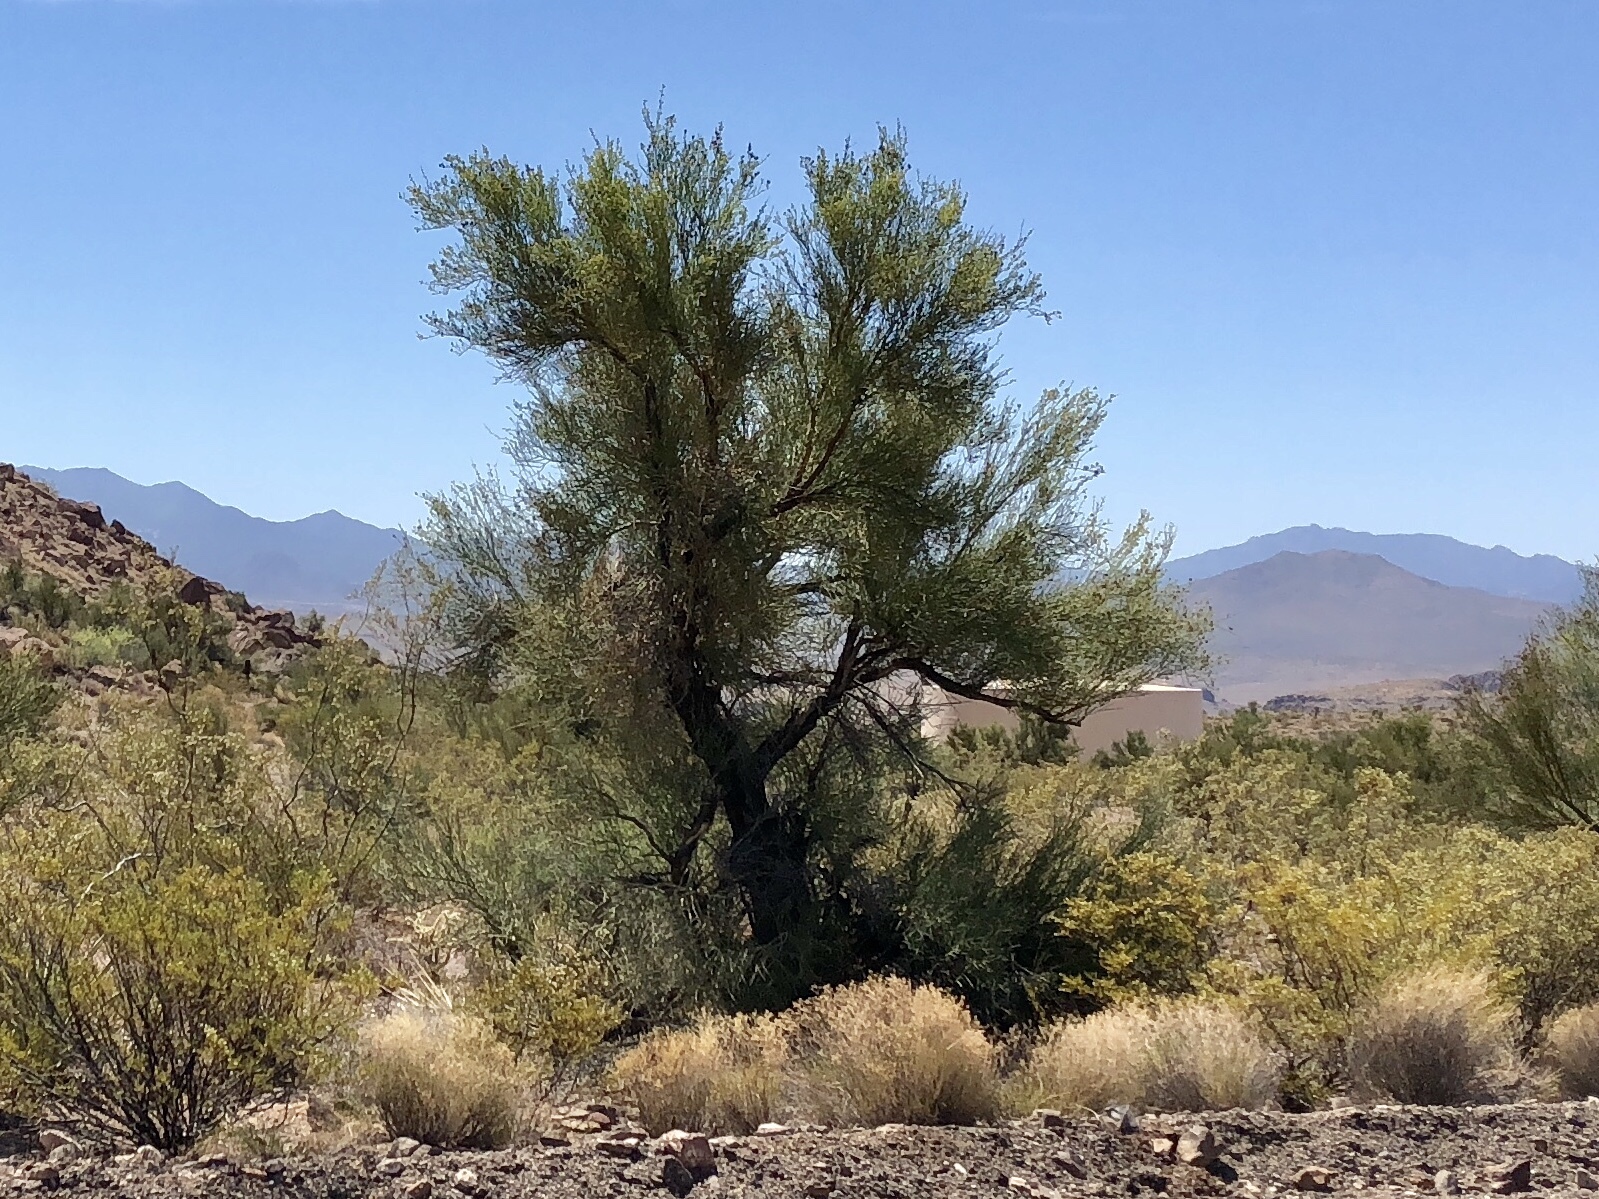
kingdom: Plantae
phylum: Tracheophyta
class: Magnoliopsida
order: Celastrales
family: Celastraceae
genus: Canotia
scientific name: Canotia holacantha
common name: Crucifixion thorns
